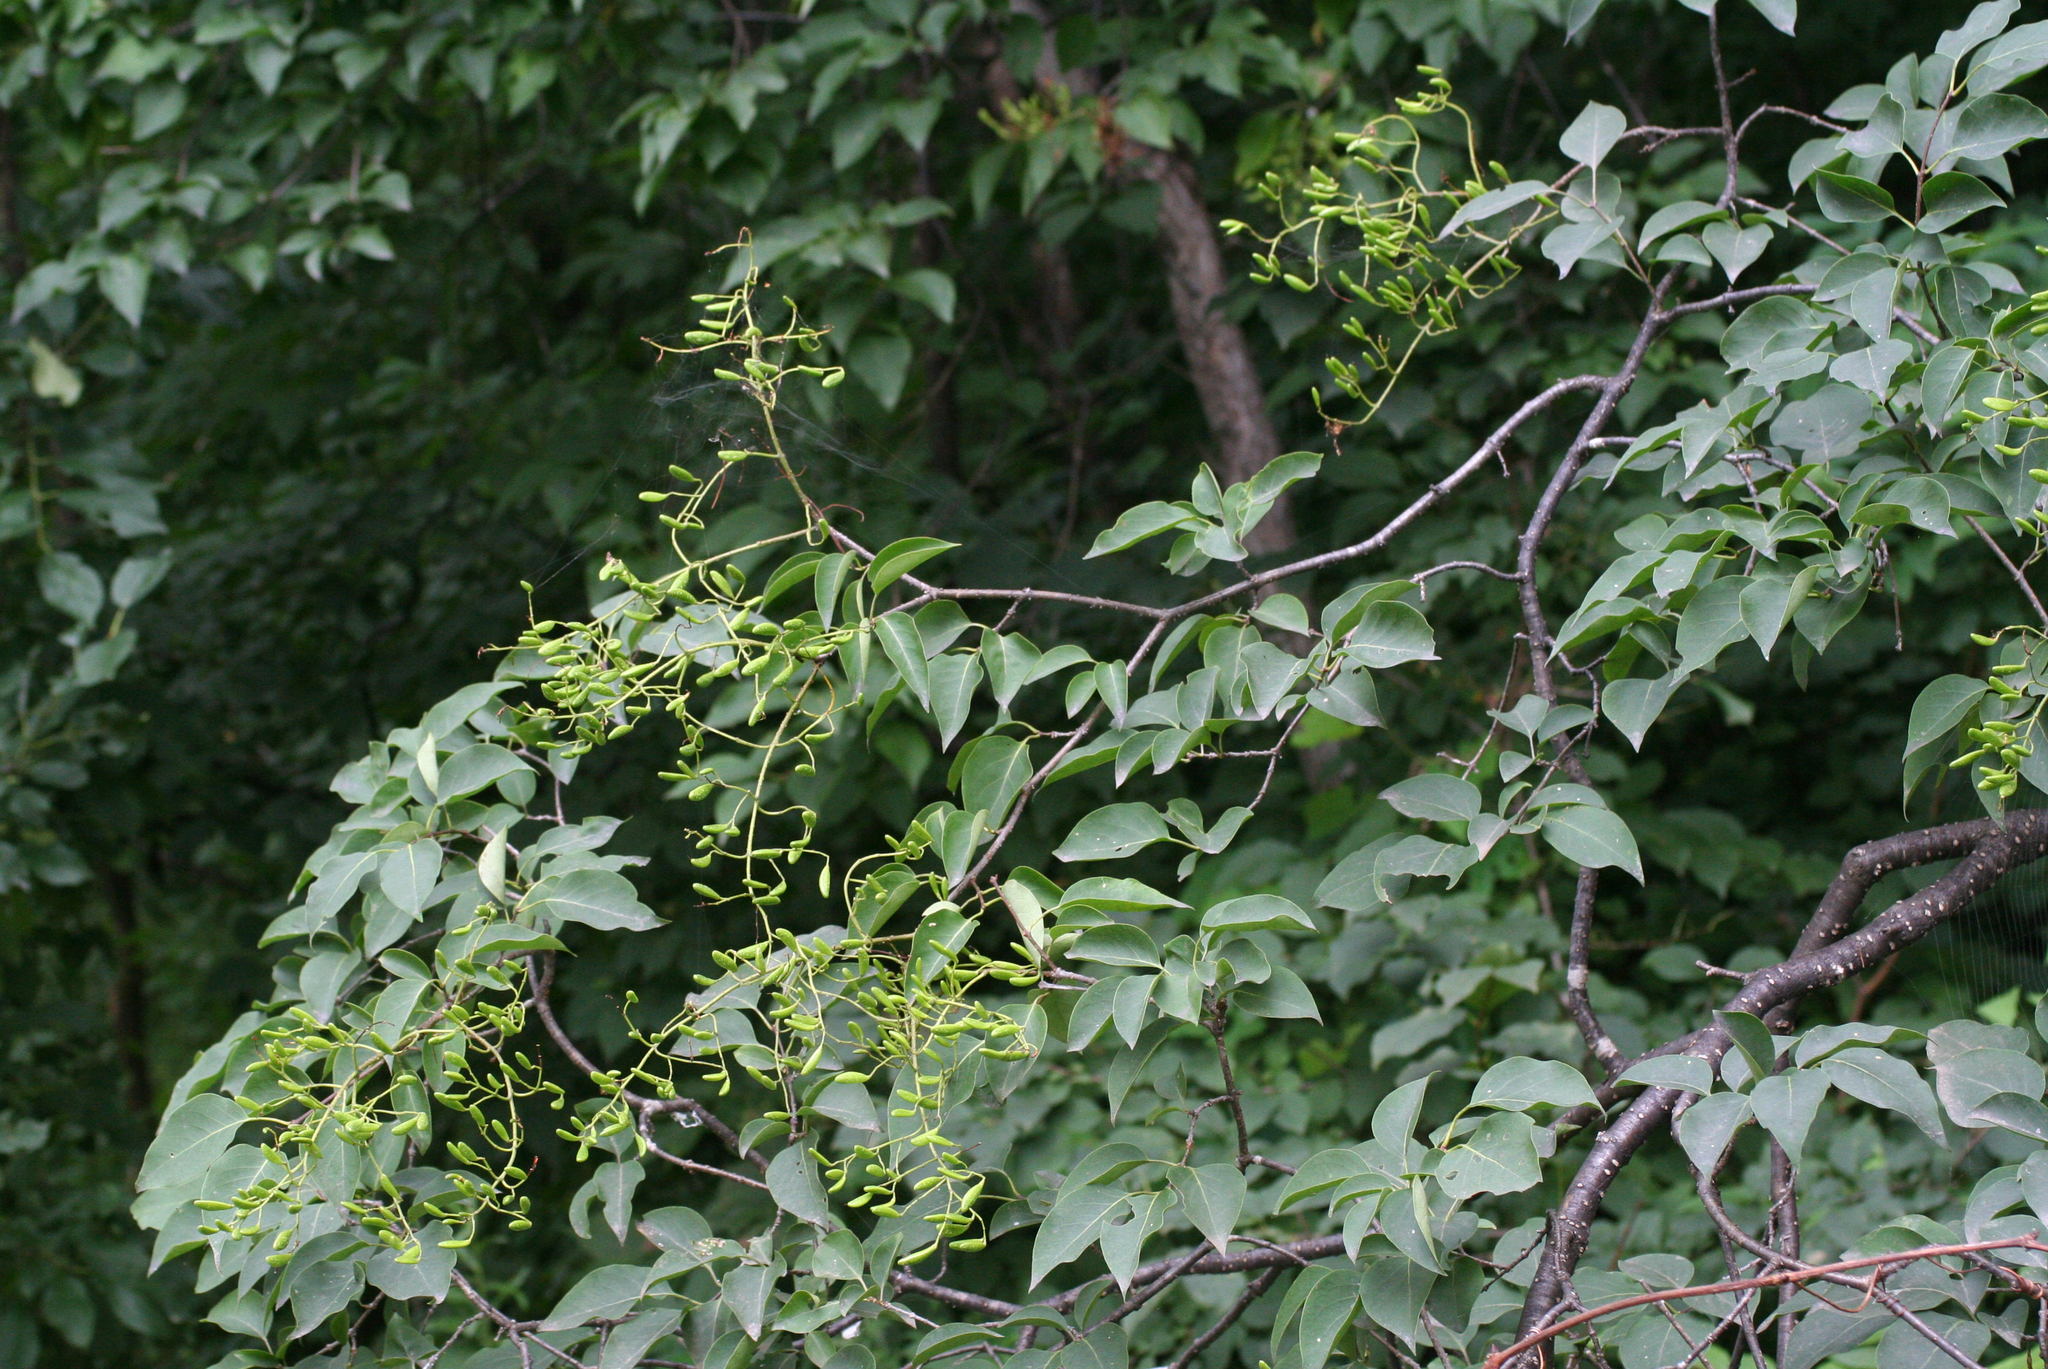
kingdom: Plantae
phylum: Tracheophyta
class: Magnoliopsida
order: Lamiales
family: Oleaceae
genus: Syringa
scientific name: Syringa reticulata
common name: Japanese tree lilac
